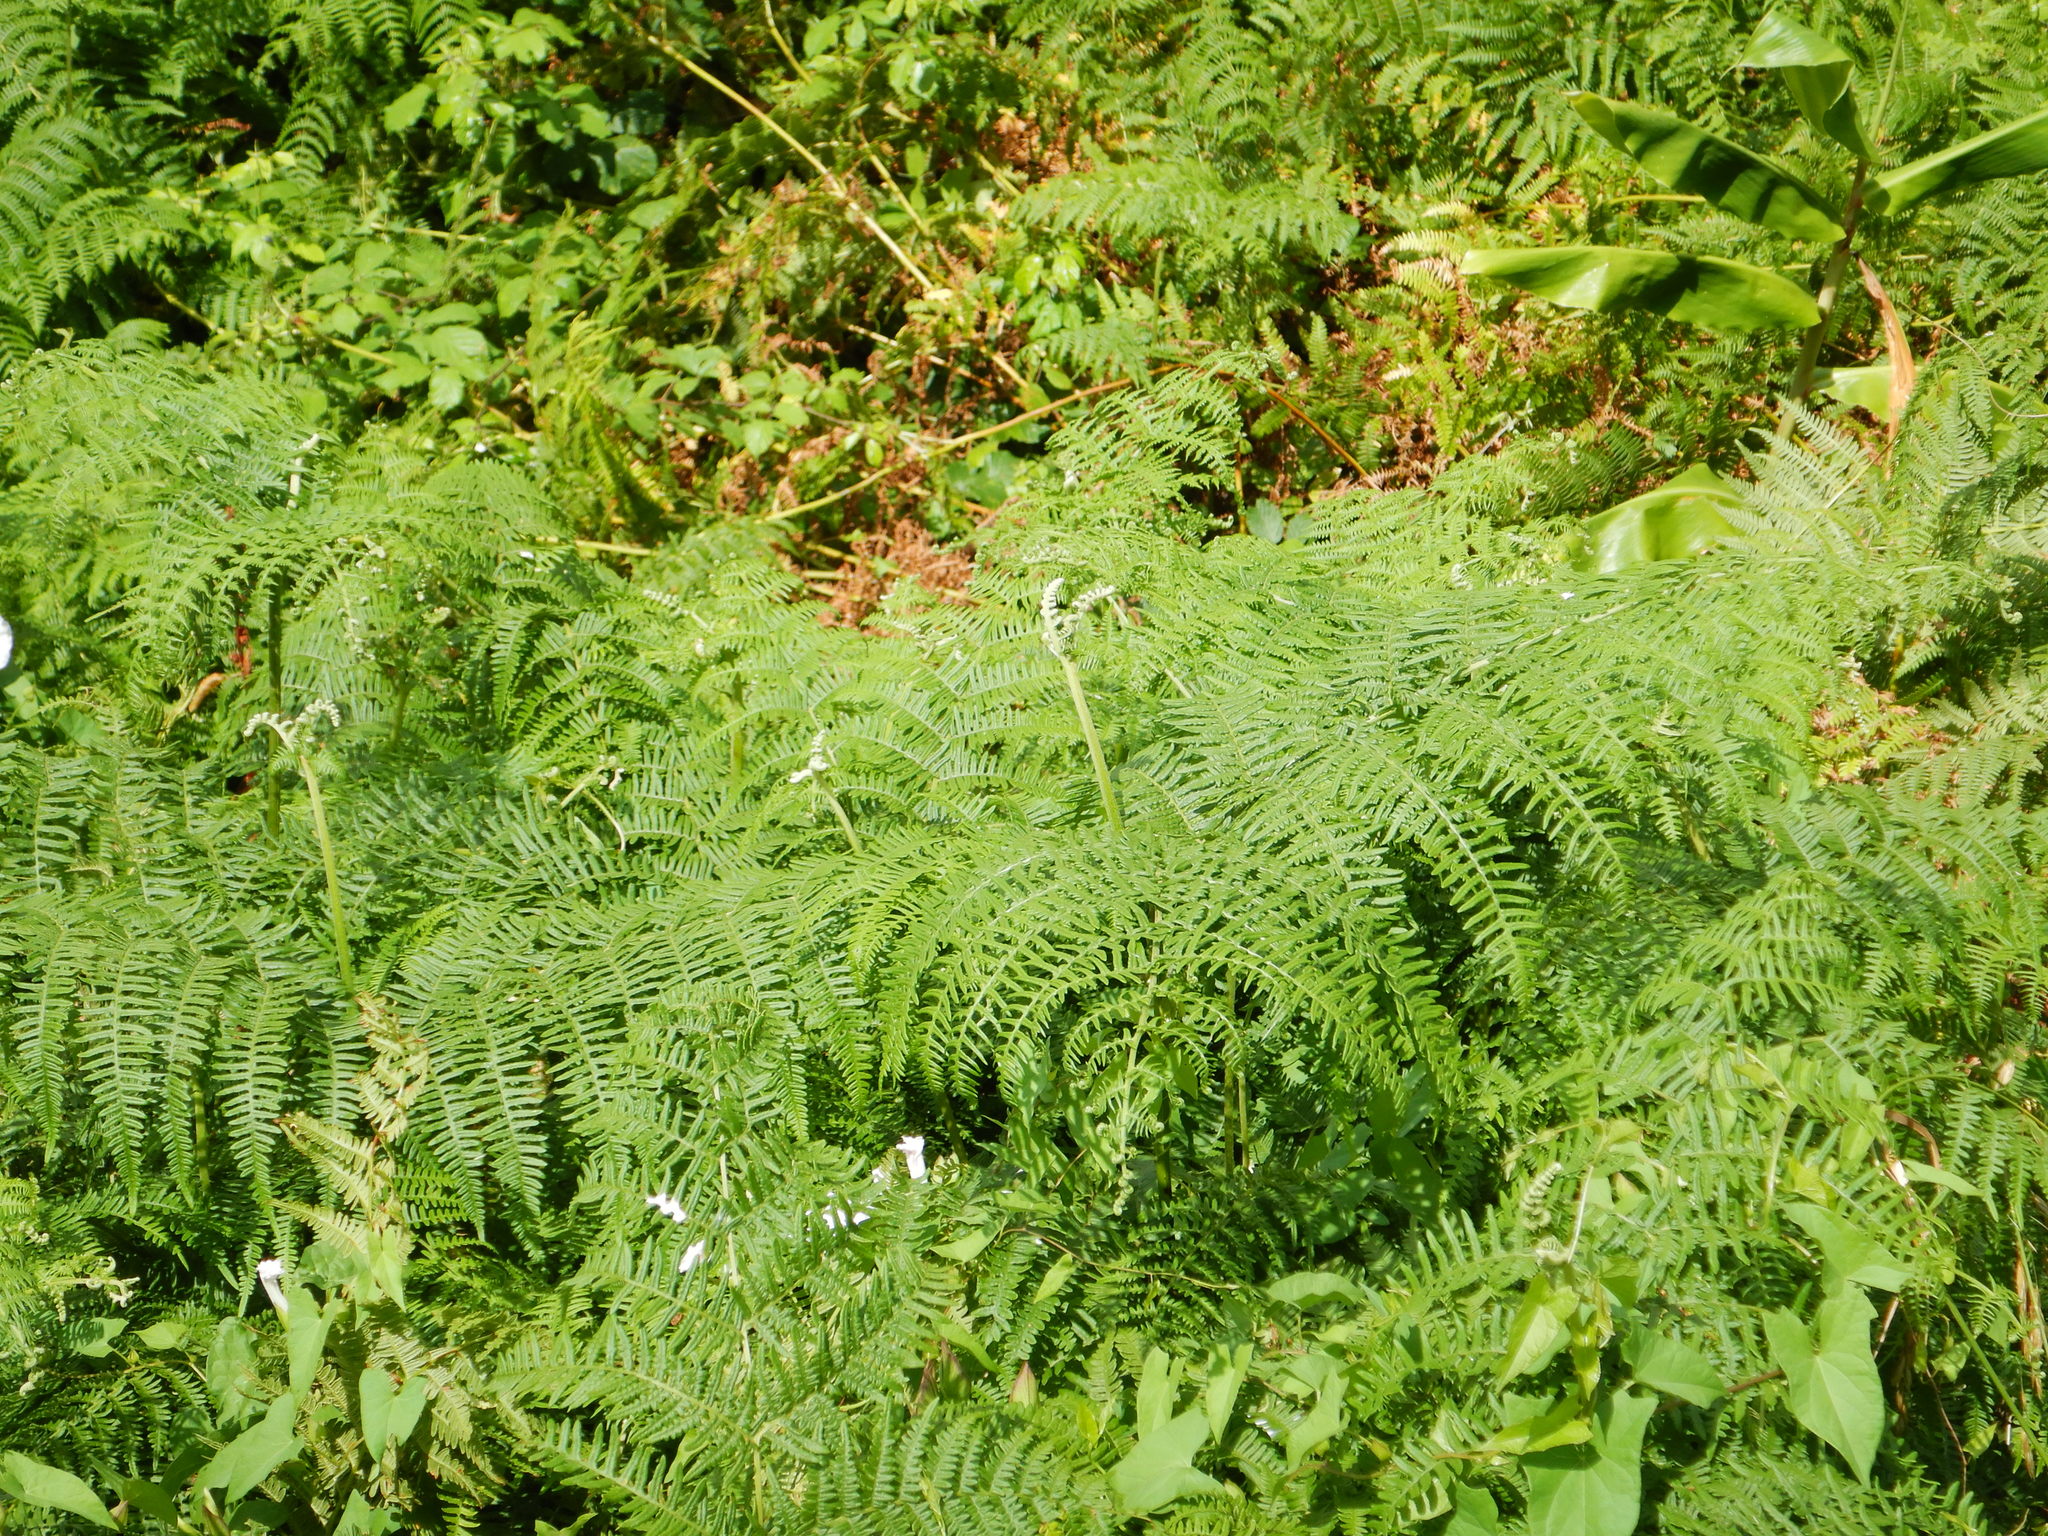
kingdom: Plantae
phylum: Tracheophyta
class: Polypodiopsida
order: Polypodiales
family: Dennstaedtiaceae
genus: Pteridium
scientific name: Pteridium aquilinum
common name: Bracken
